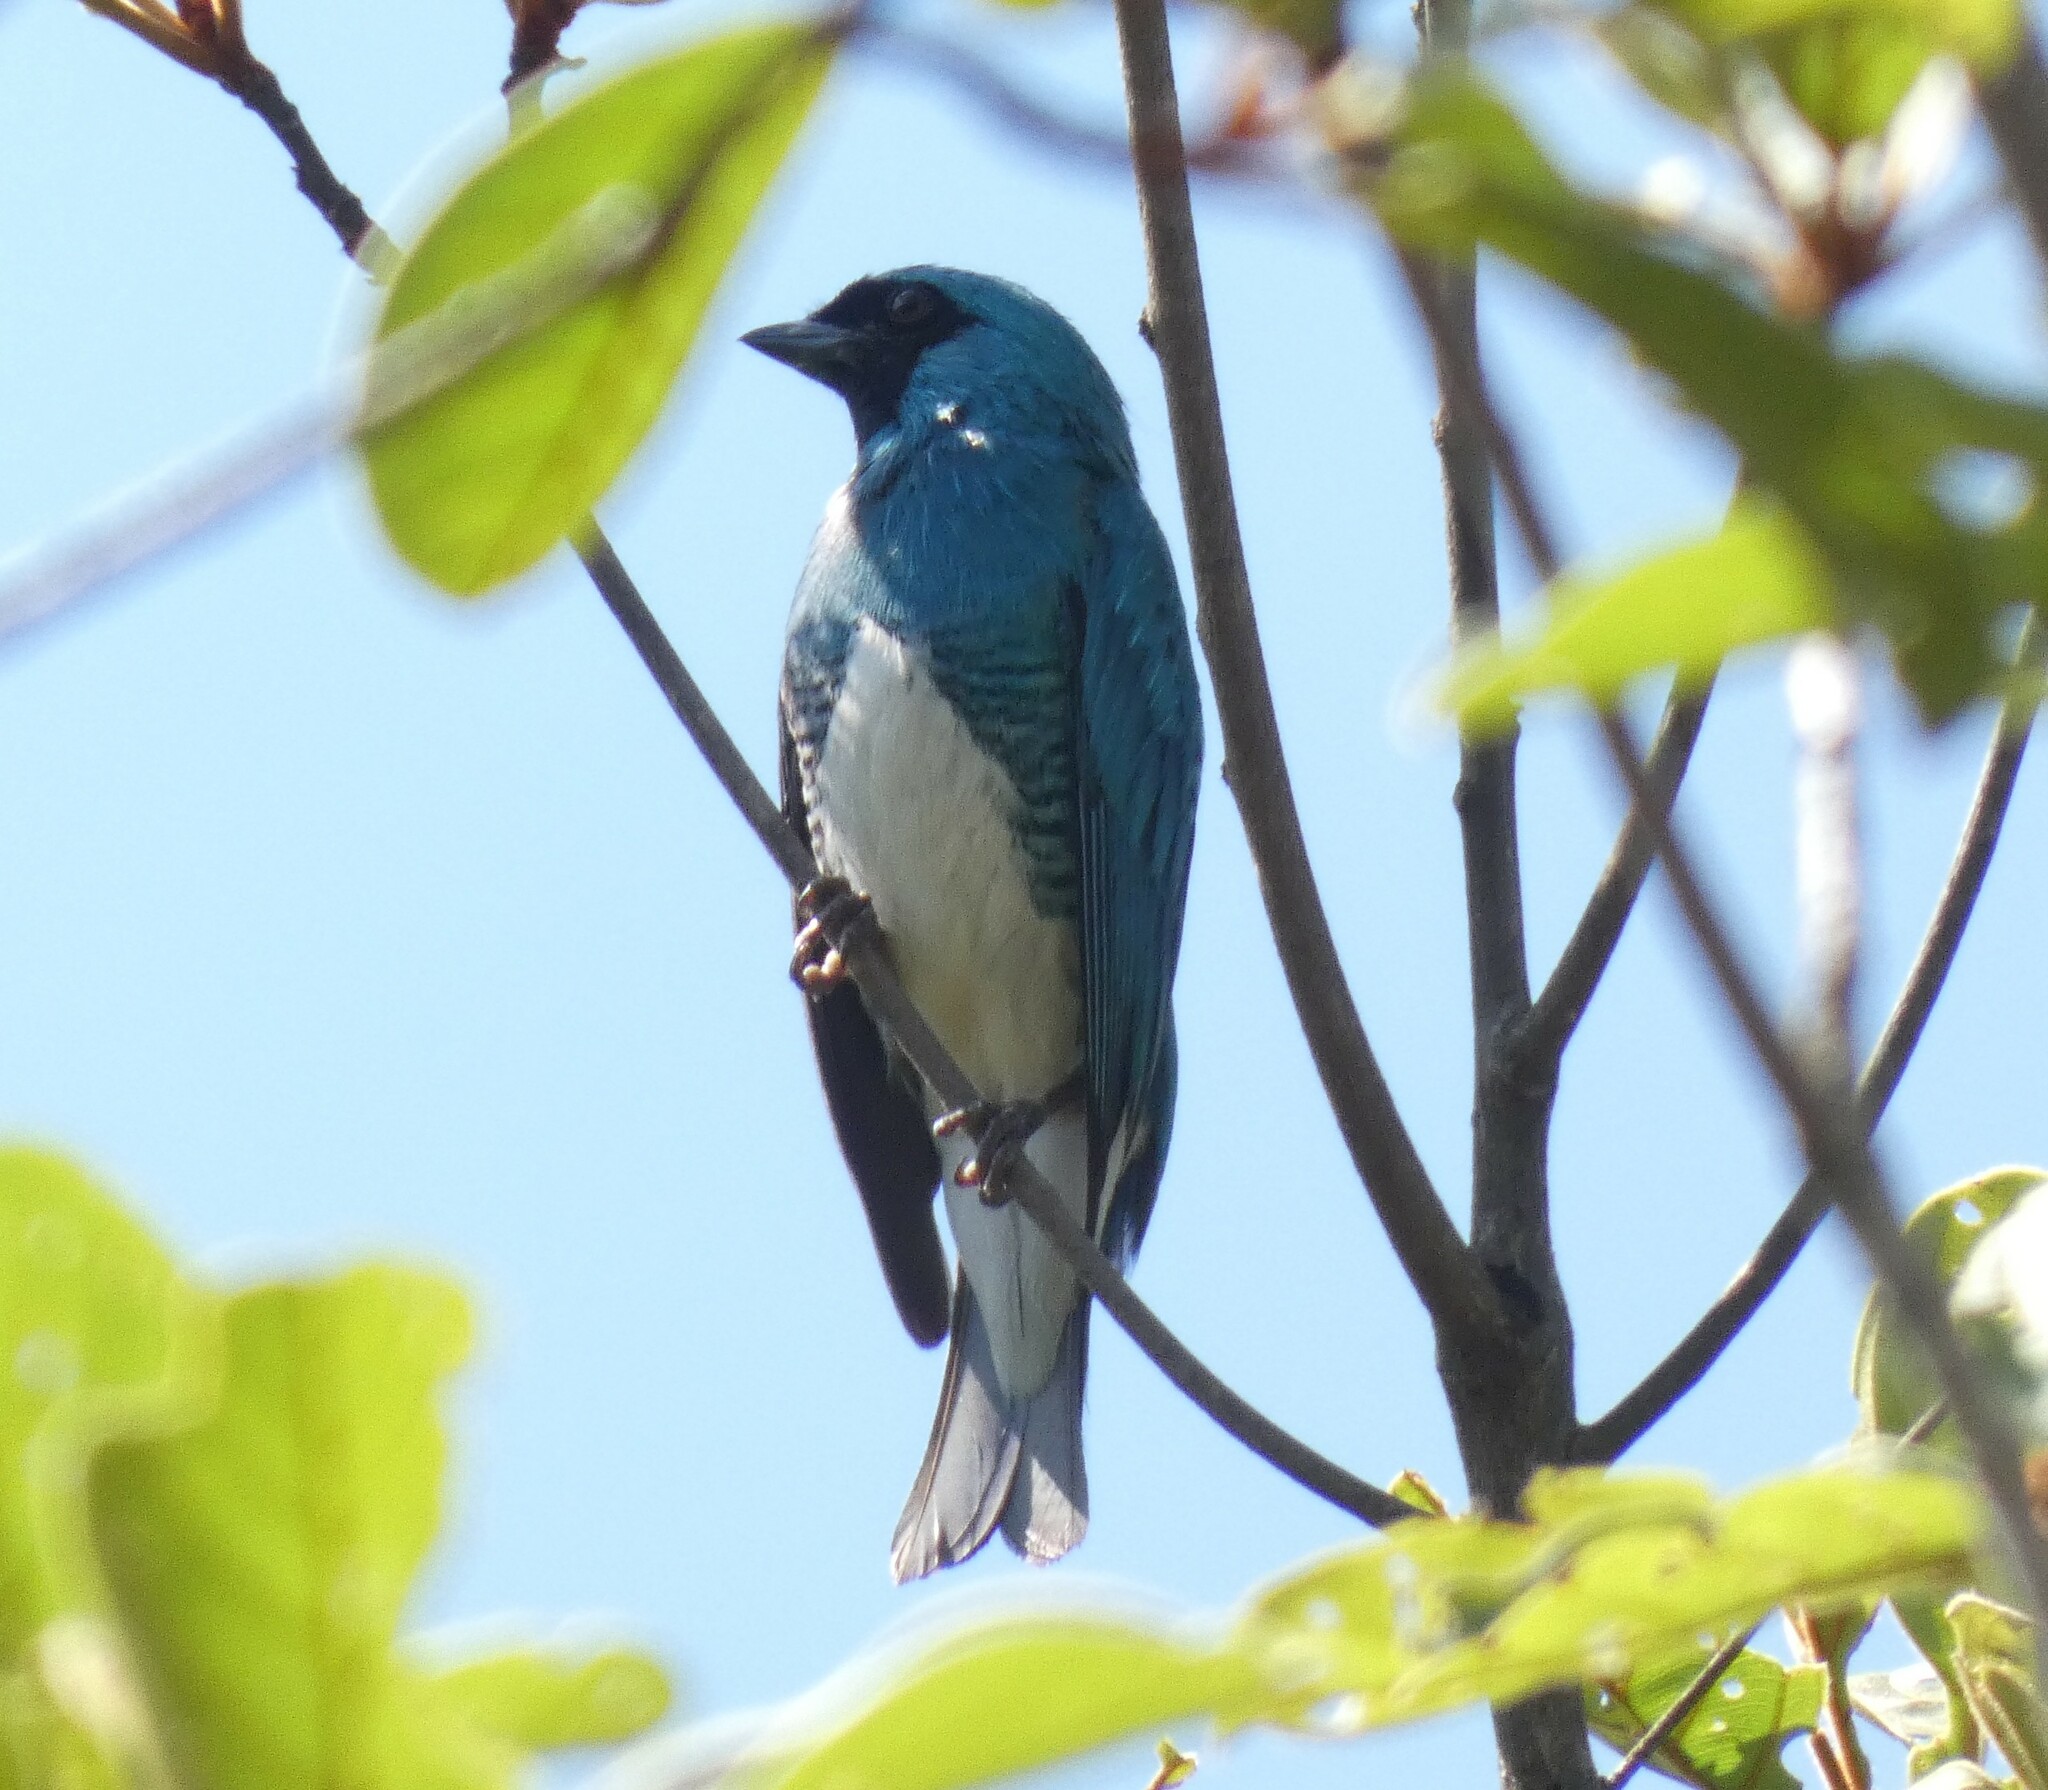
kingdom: Animalia
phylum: Chordata
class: Aves
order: Passeriformes
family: Thraupidae
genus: Tersina
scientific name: Tersina viridis
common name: Swallow tanager
